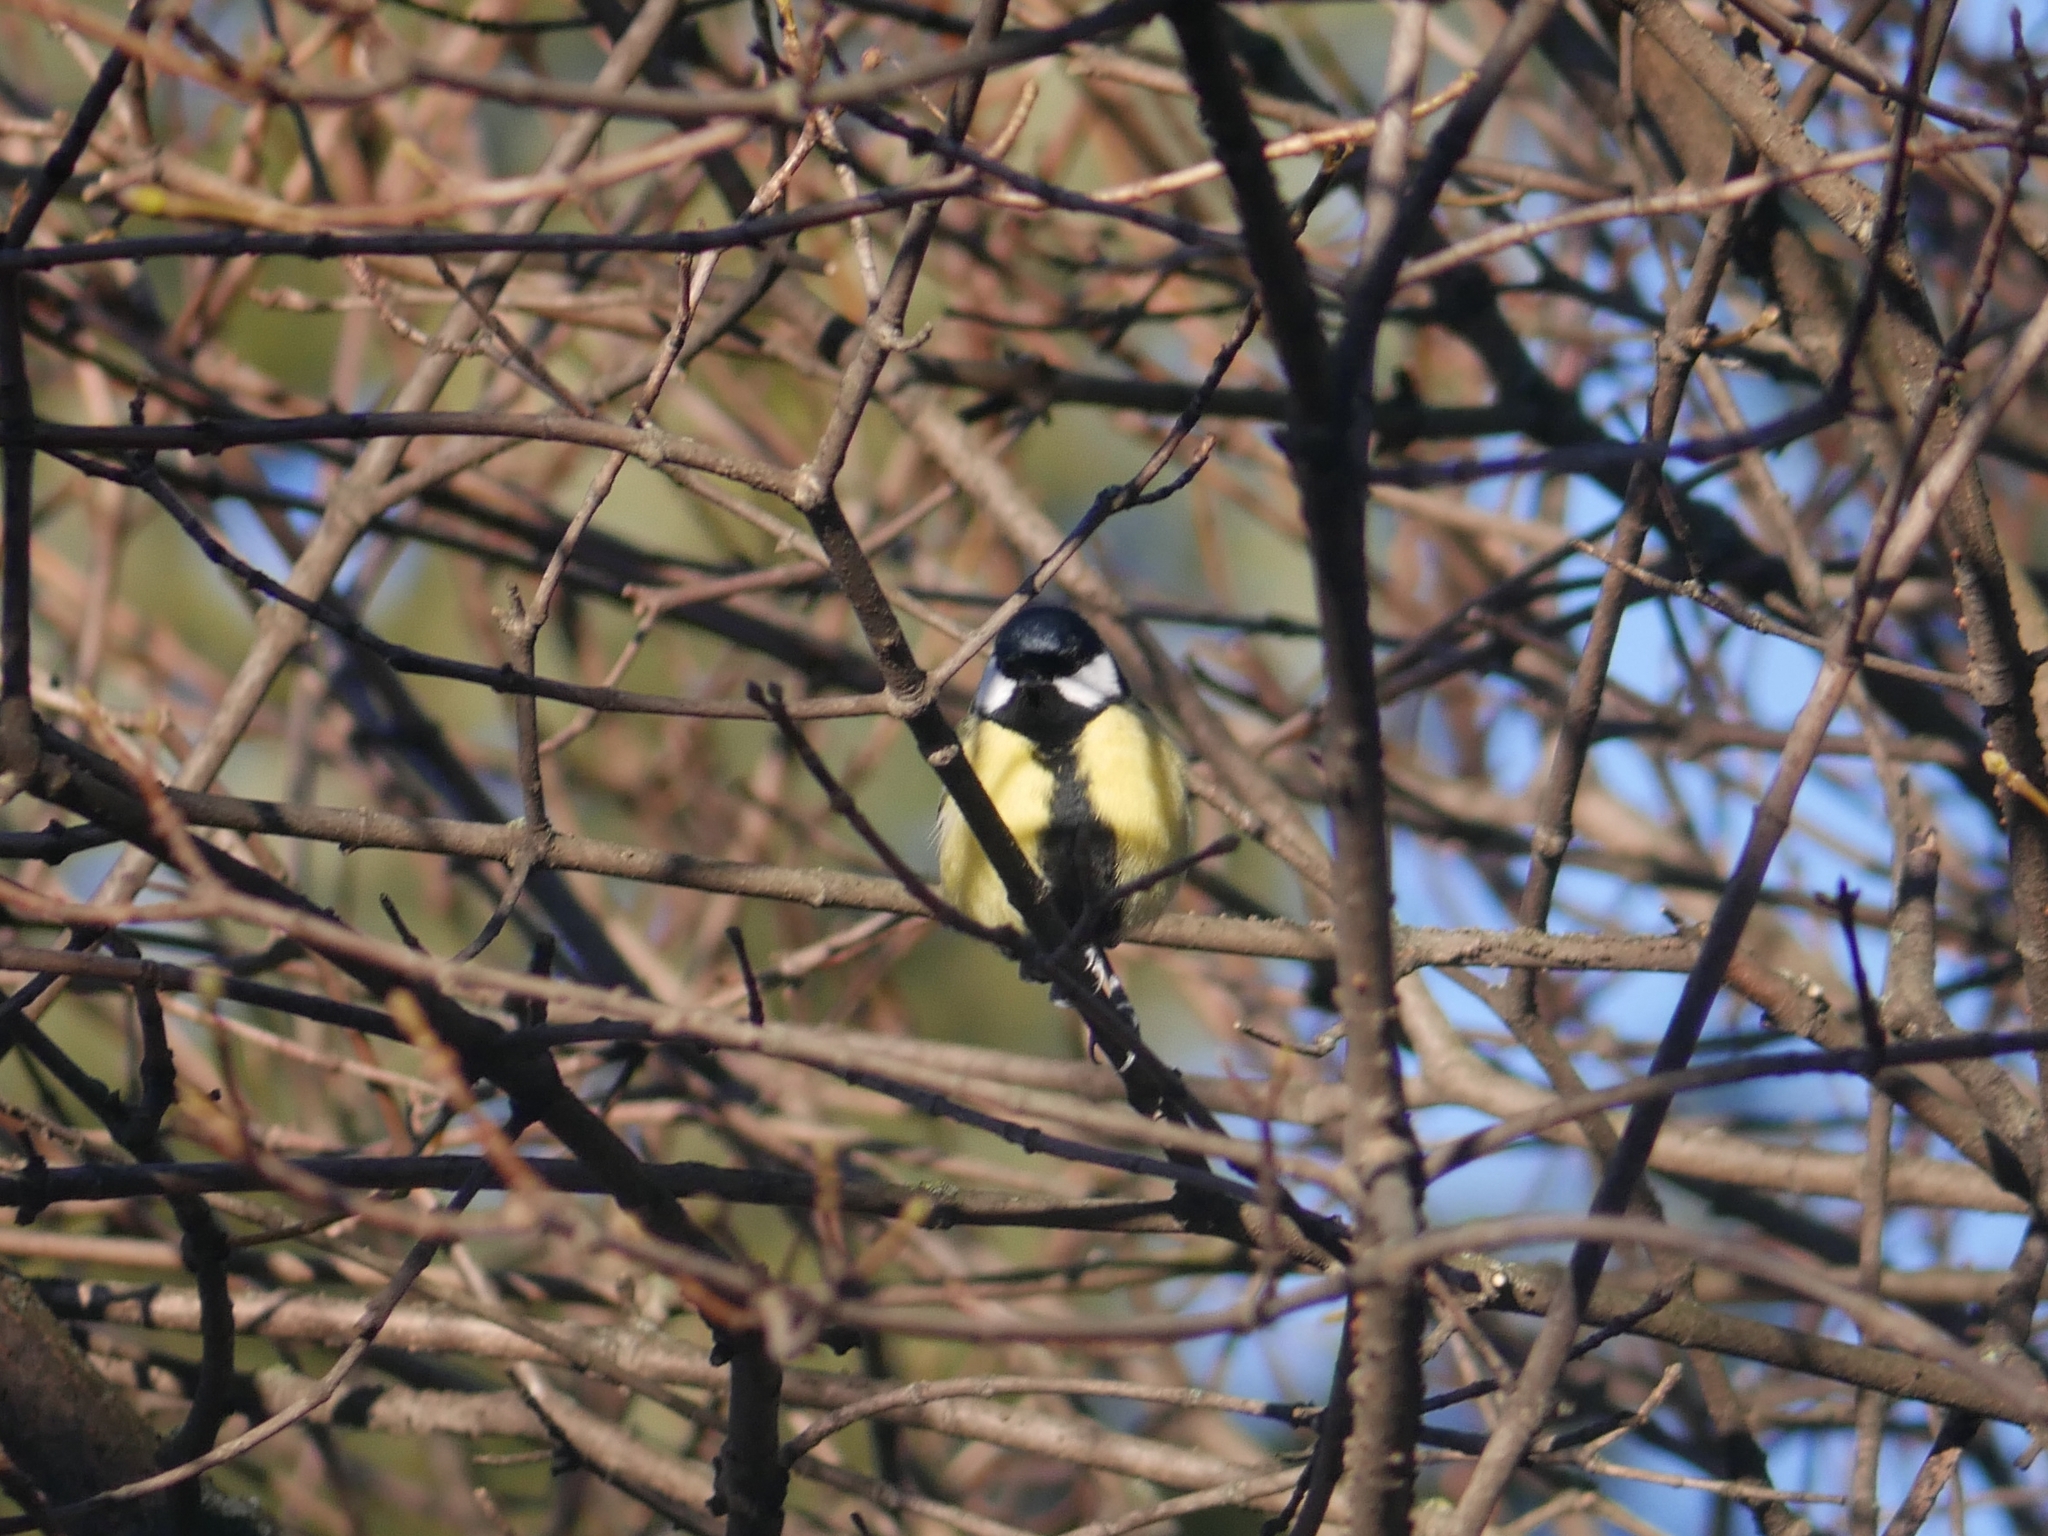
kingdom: Animalia
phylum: Chordata
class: Aves
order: Passeriformes
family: Paridae
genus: Parus
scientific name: Parus major
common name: Great tit
